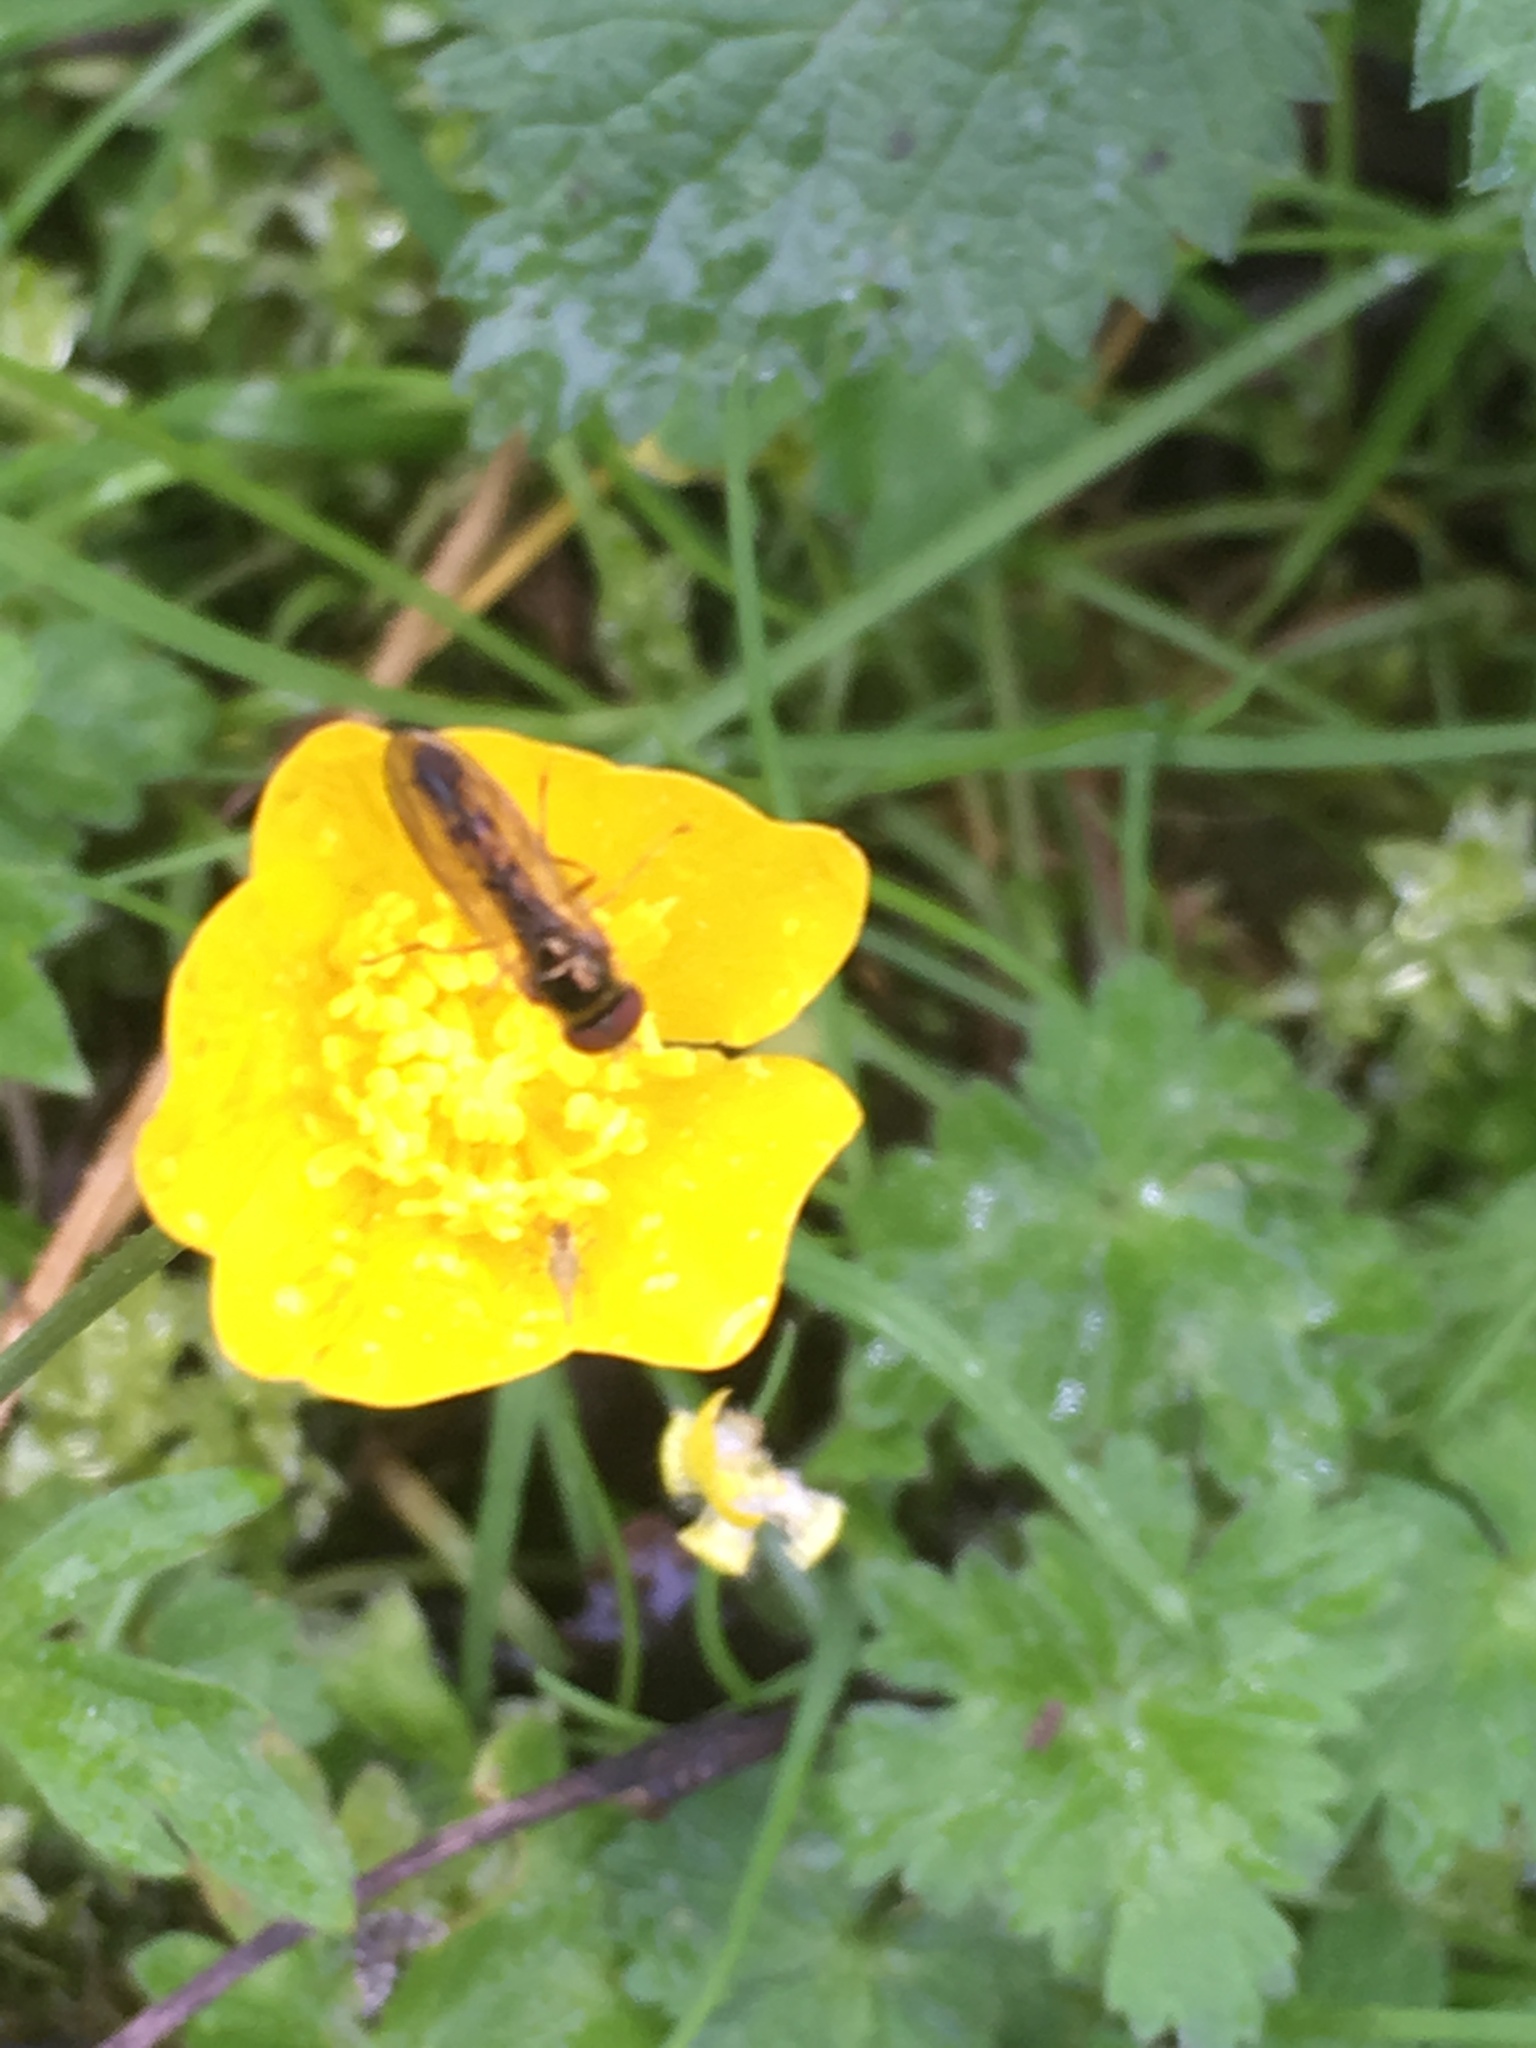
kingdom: Animalia
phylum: Arthropoda
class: Insecta
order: Diptera
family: Syrphidae
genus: Melanostoma
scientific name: Melanostoma scalare
